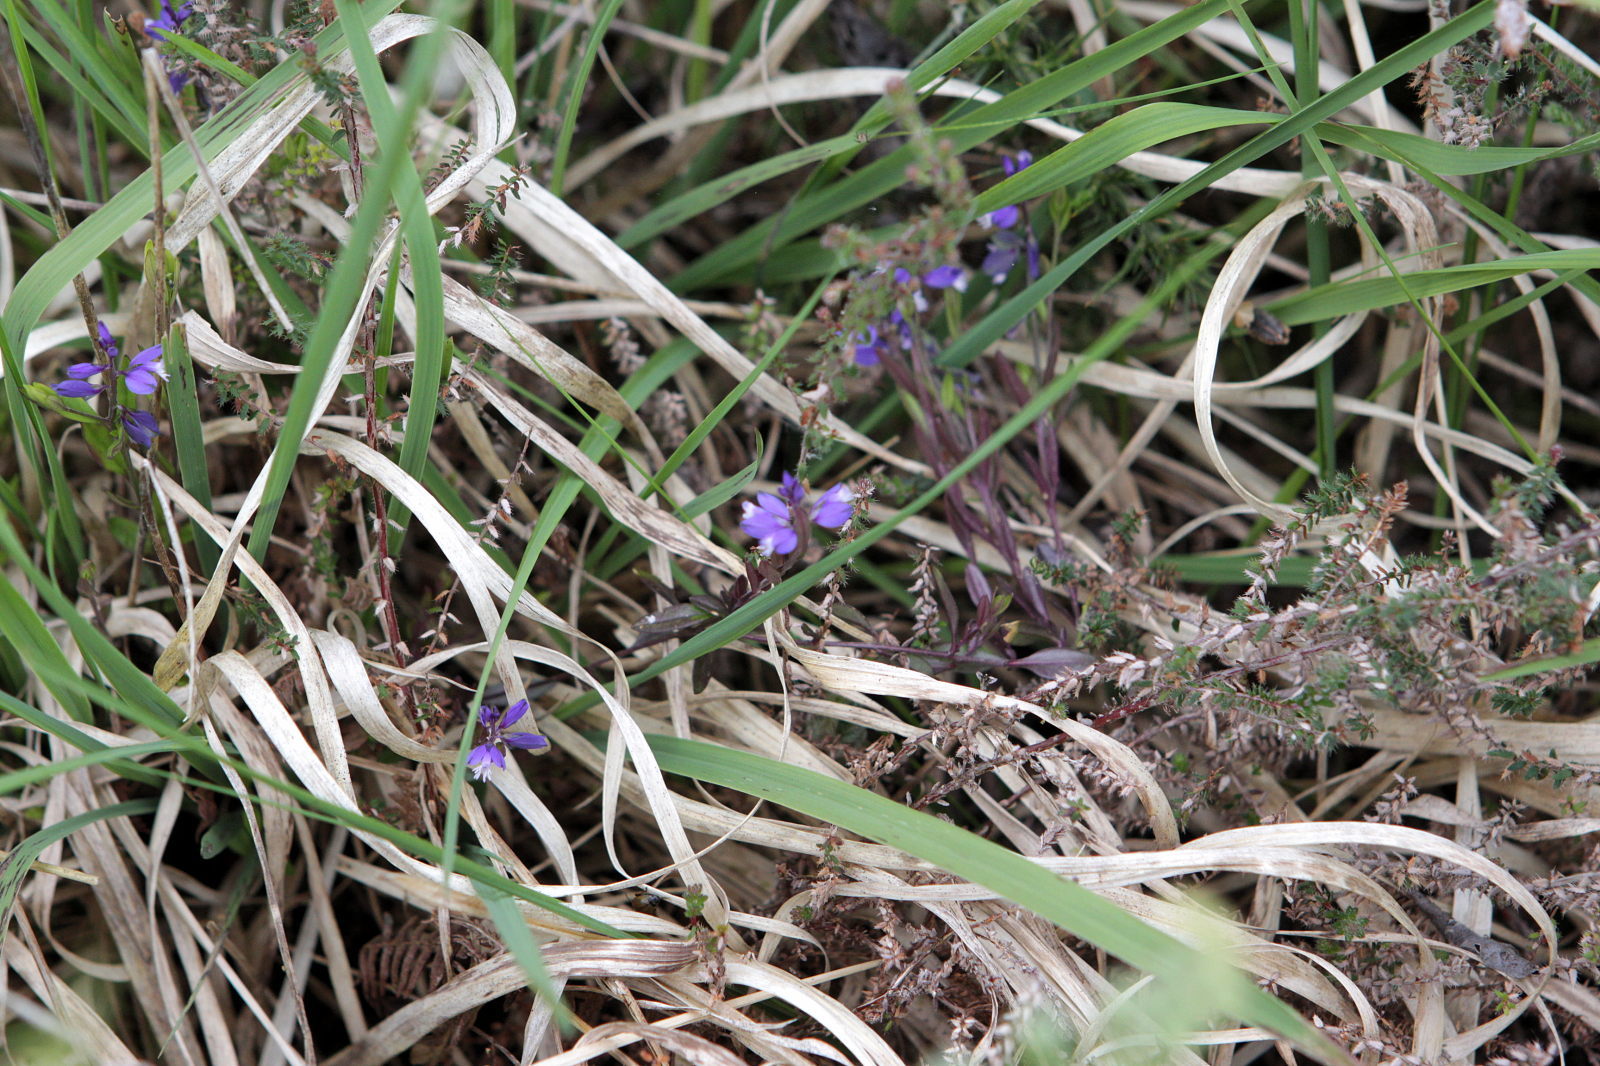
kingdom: Plantae
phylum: Tracheophyta
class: Magnoliopsida
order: Fabales
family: Polygalaceae
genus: Polygala
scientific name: Polygala serpyllifolia
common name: Heath milkwort
